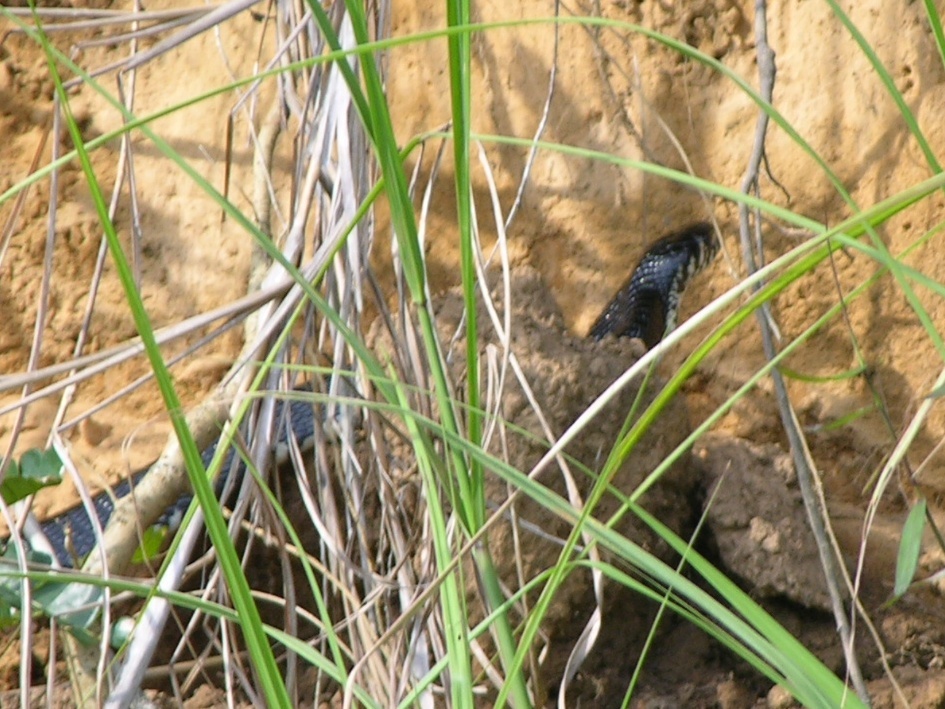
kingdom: Animalia
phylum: Chordata
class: Squamata
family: Elapidae
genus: Naja
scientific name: Naja melanoleuca
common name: Central africa forest cobra
